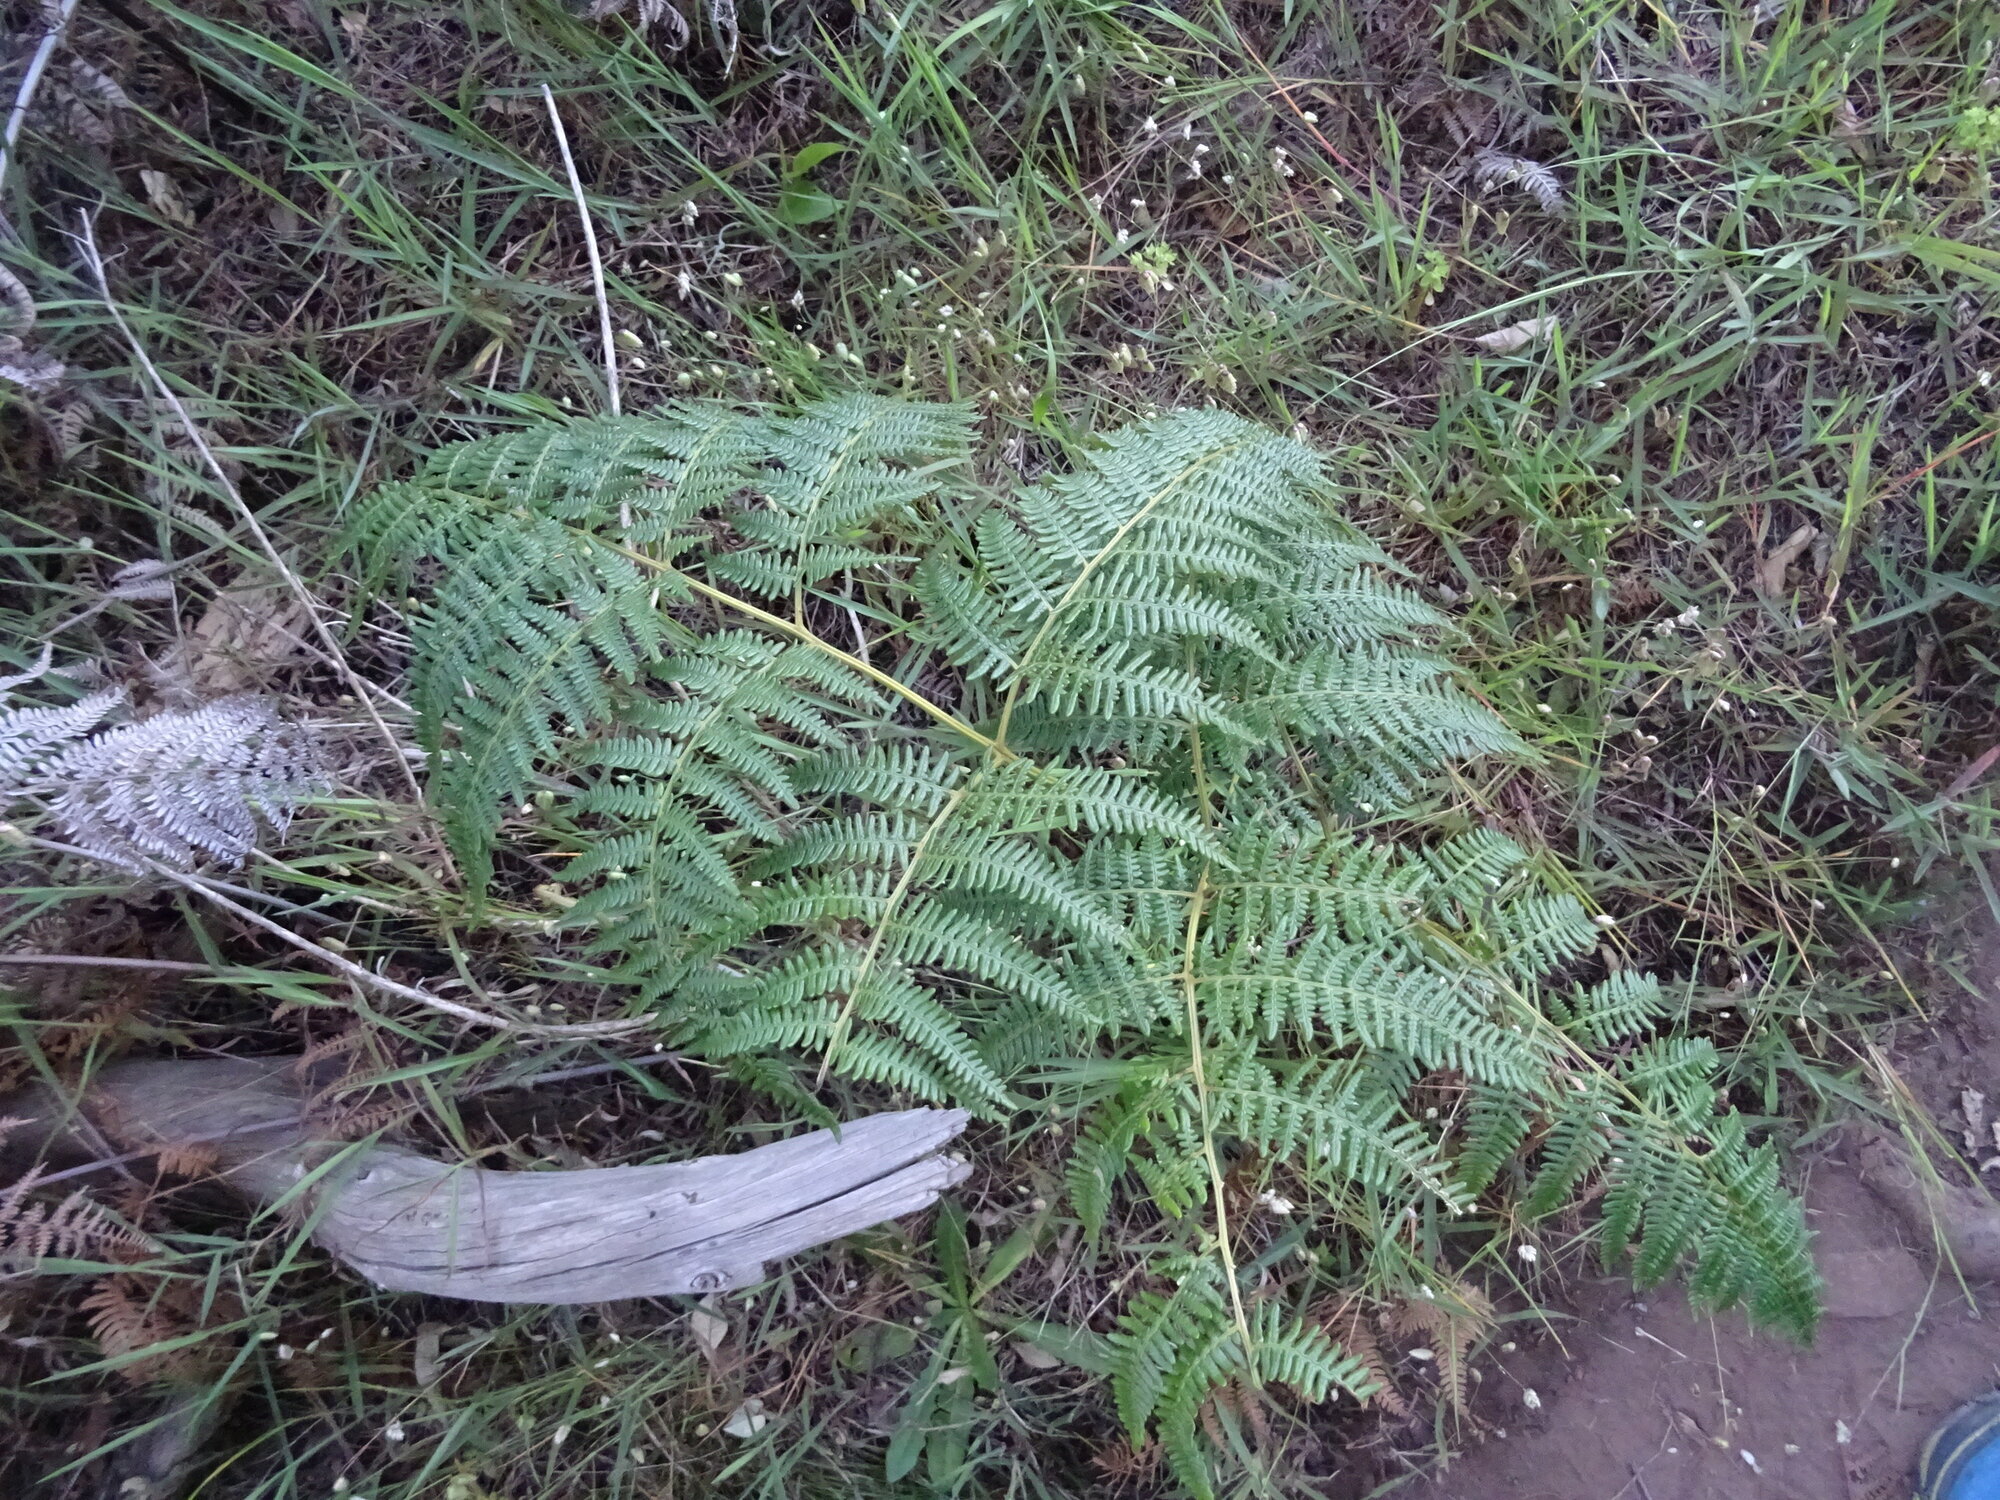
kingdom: Plantae
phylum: Tracheophyta
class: Polypodiopsida
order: Polypodiales
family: Dennstaedtiaceae
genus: Pteridium
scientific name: Pteridium aquilinum
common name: Bracken
